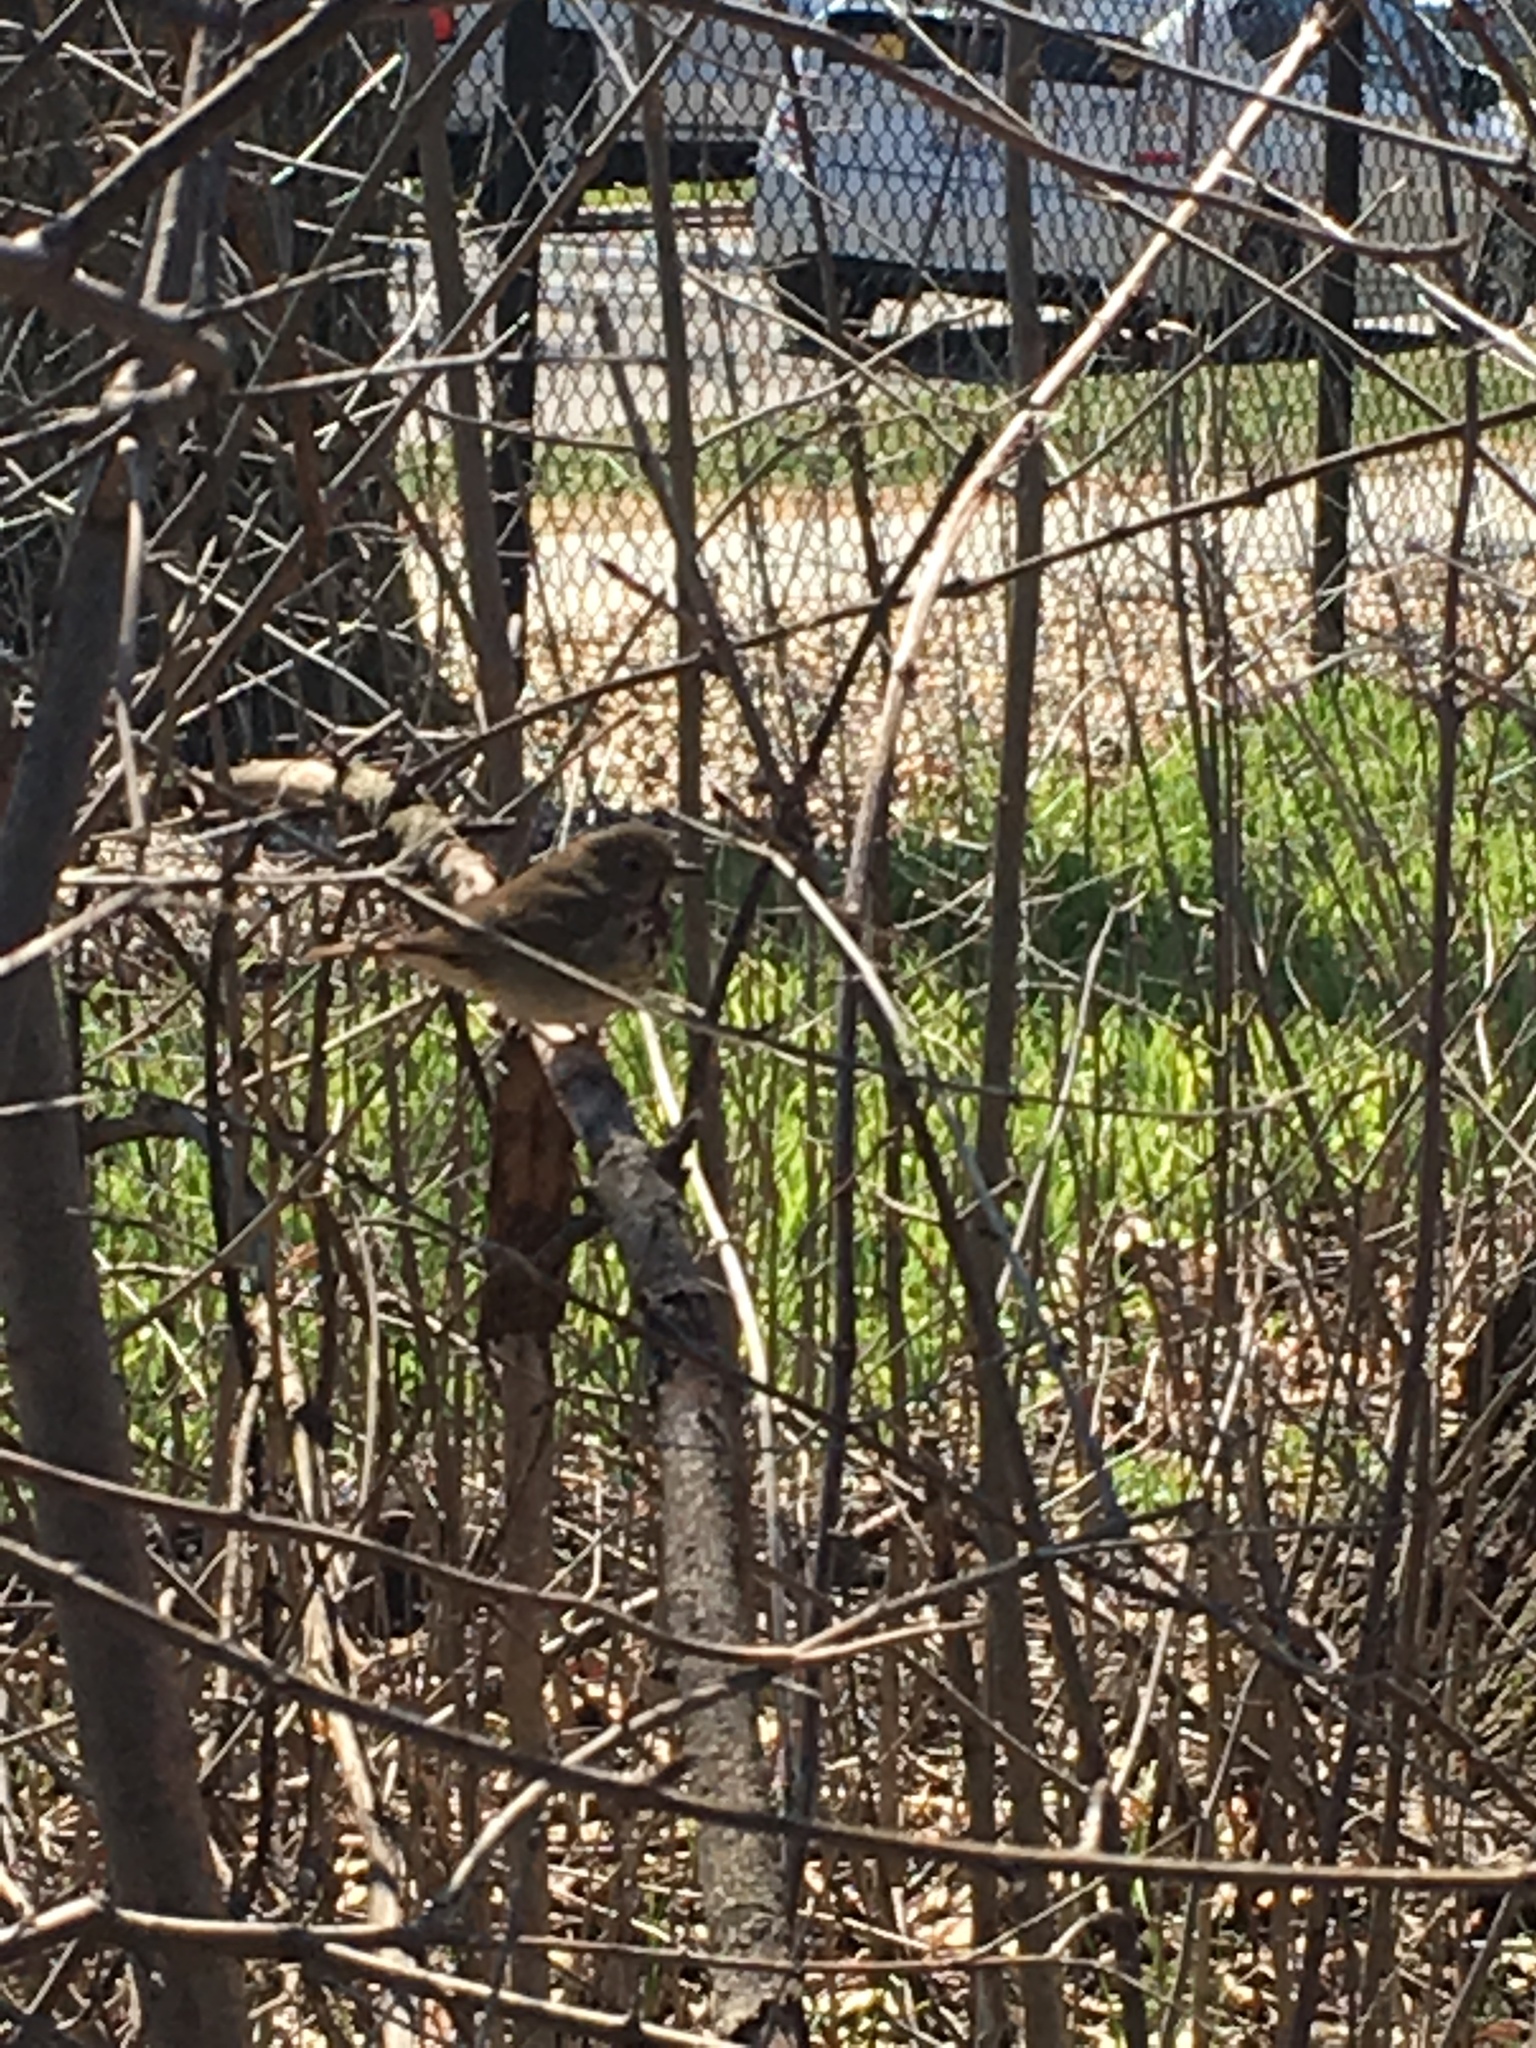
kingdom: Animalia
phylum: Chordata
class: Aves
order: Passeriformes
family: Turdidae
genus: Catharus
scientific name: Catharus guttatus
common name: Hermit thrush
